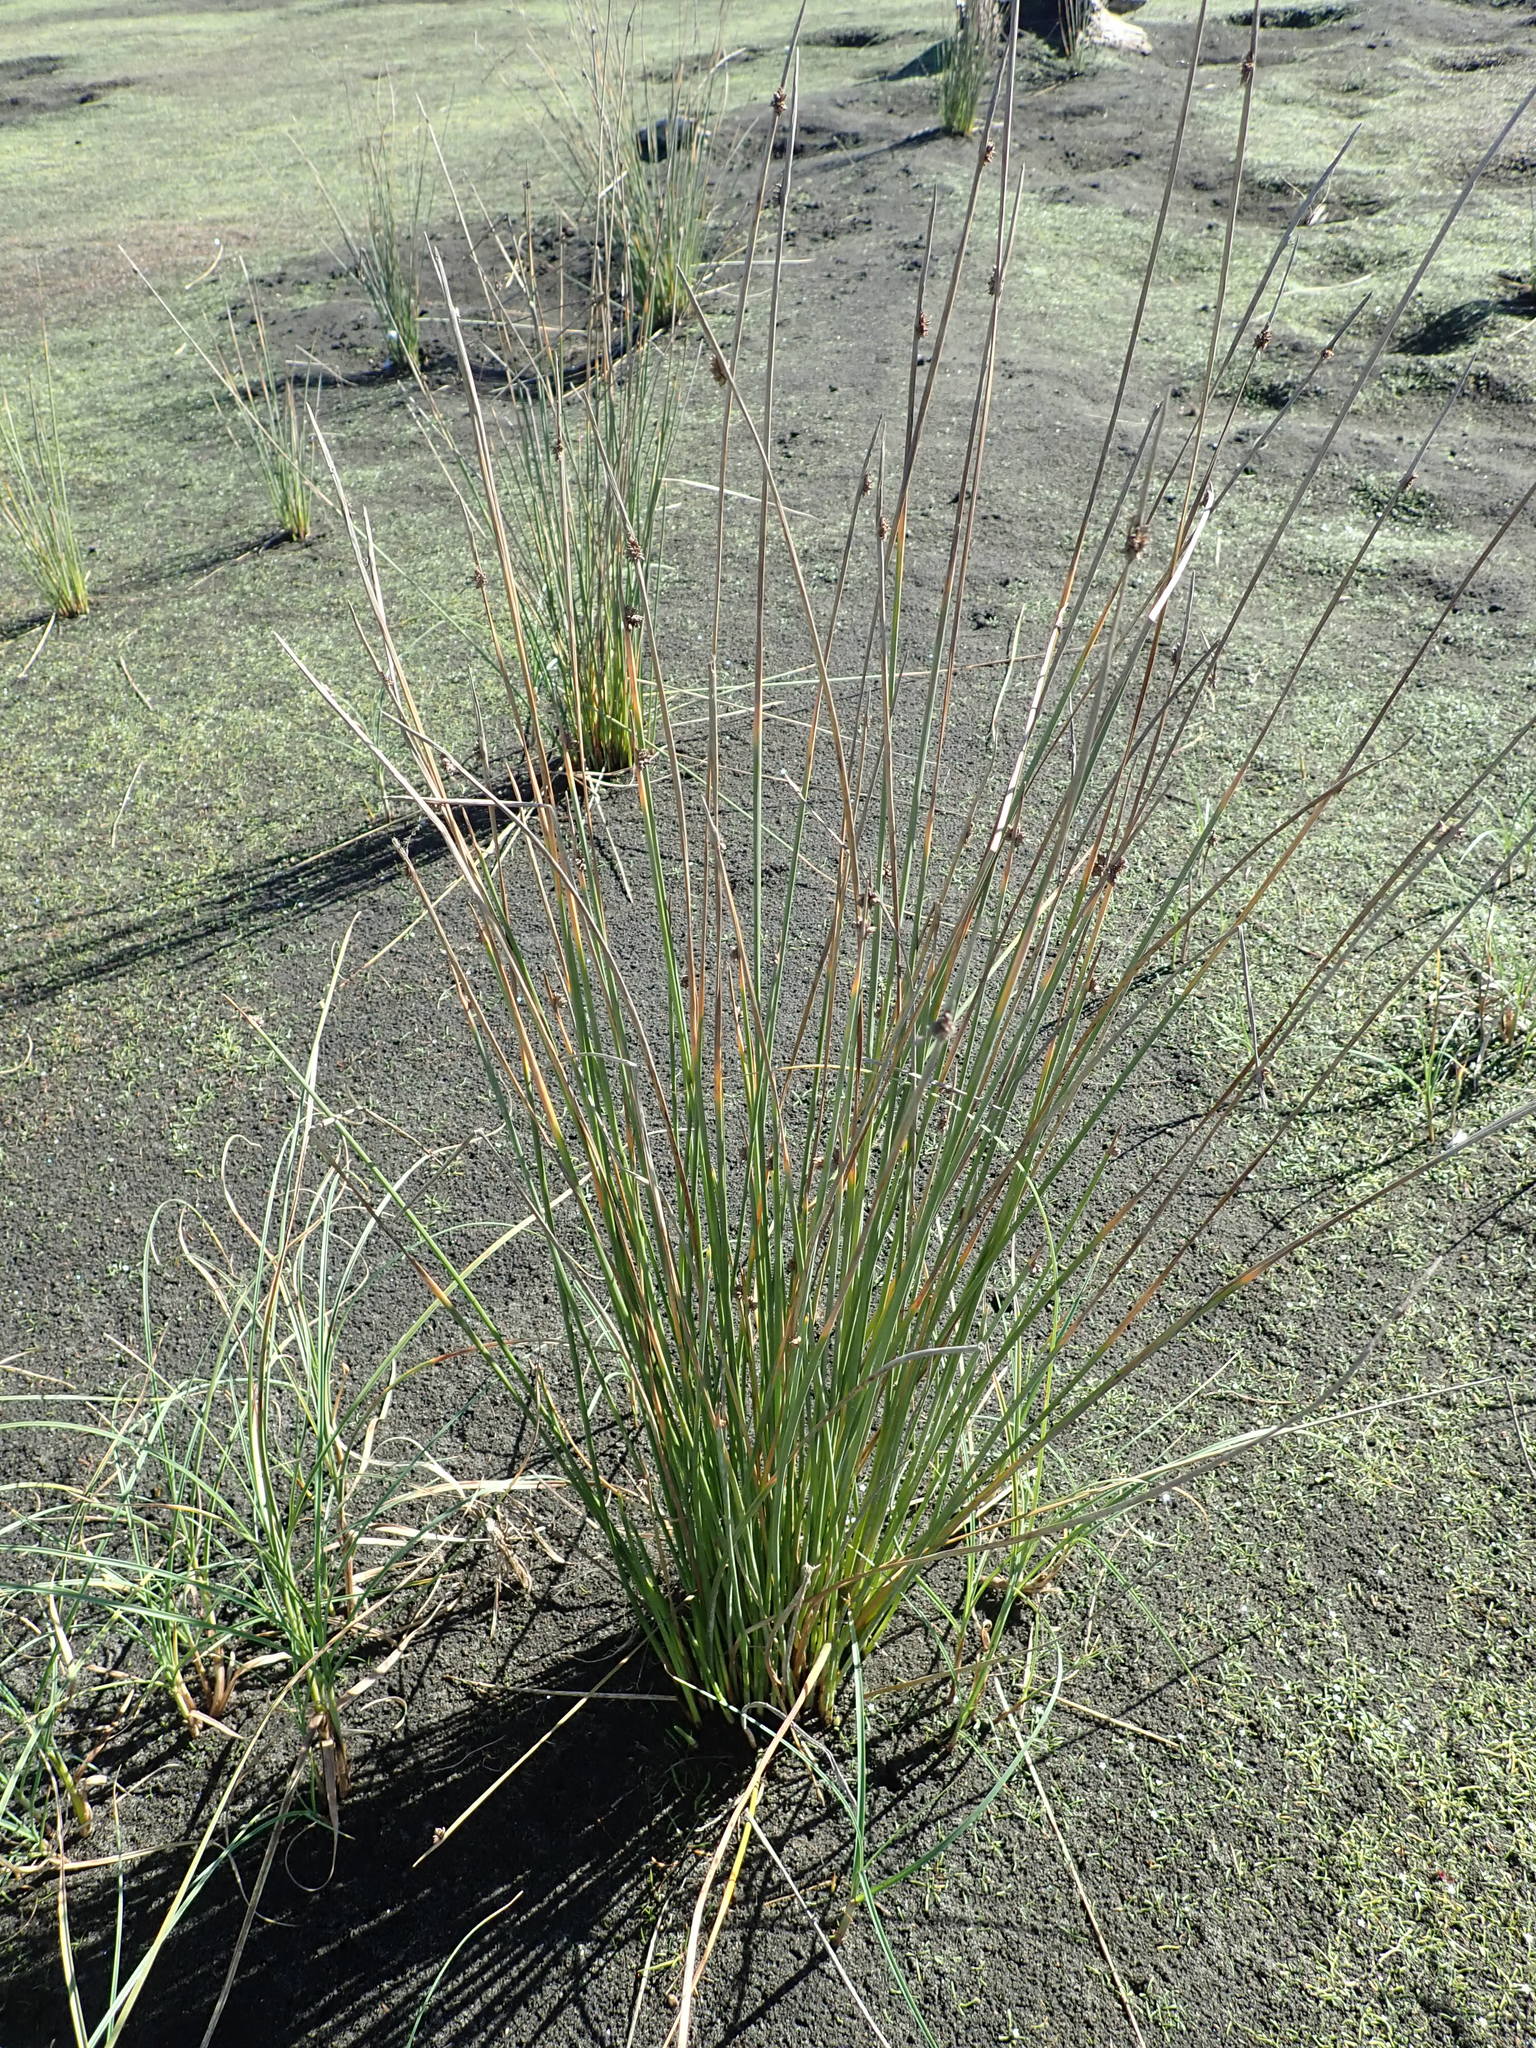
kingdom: Plantae
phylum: Tracheophyta
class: Liliopsida
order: Poales
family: Cyperaceae
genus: Ficinia
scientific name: Ficinia nodosa
